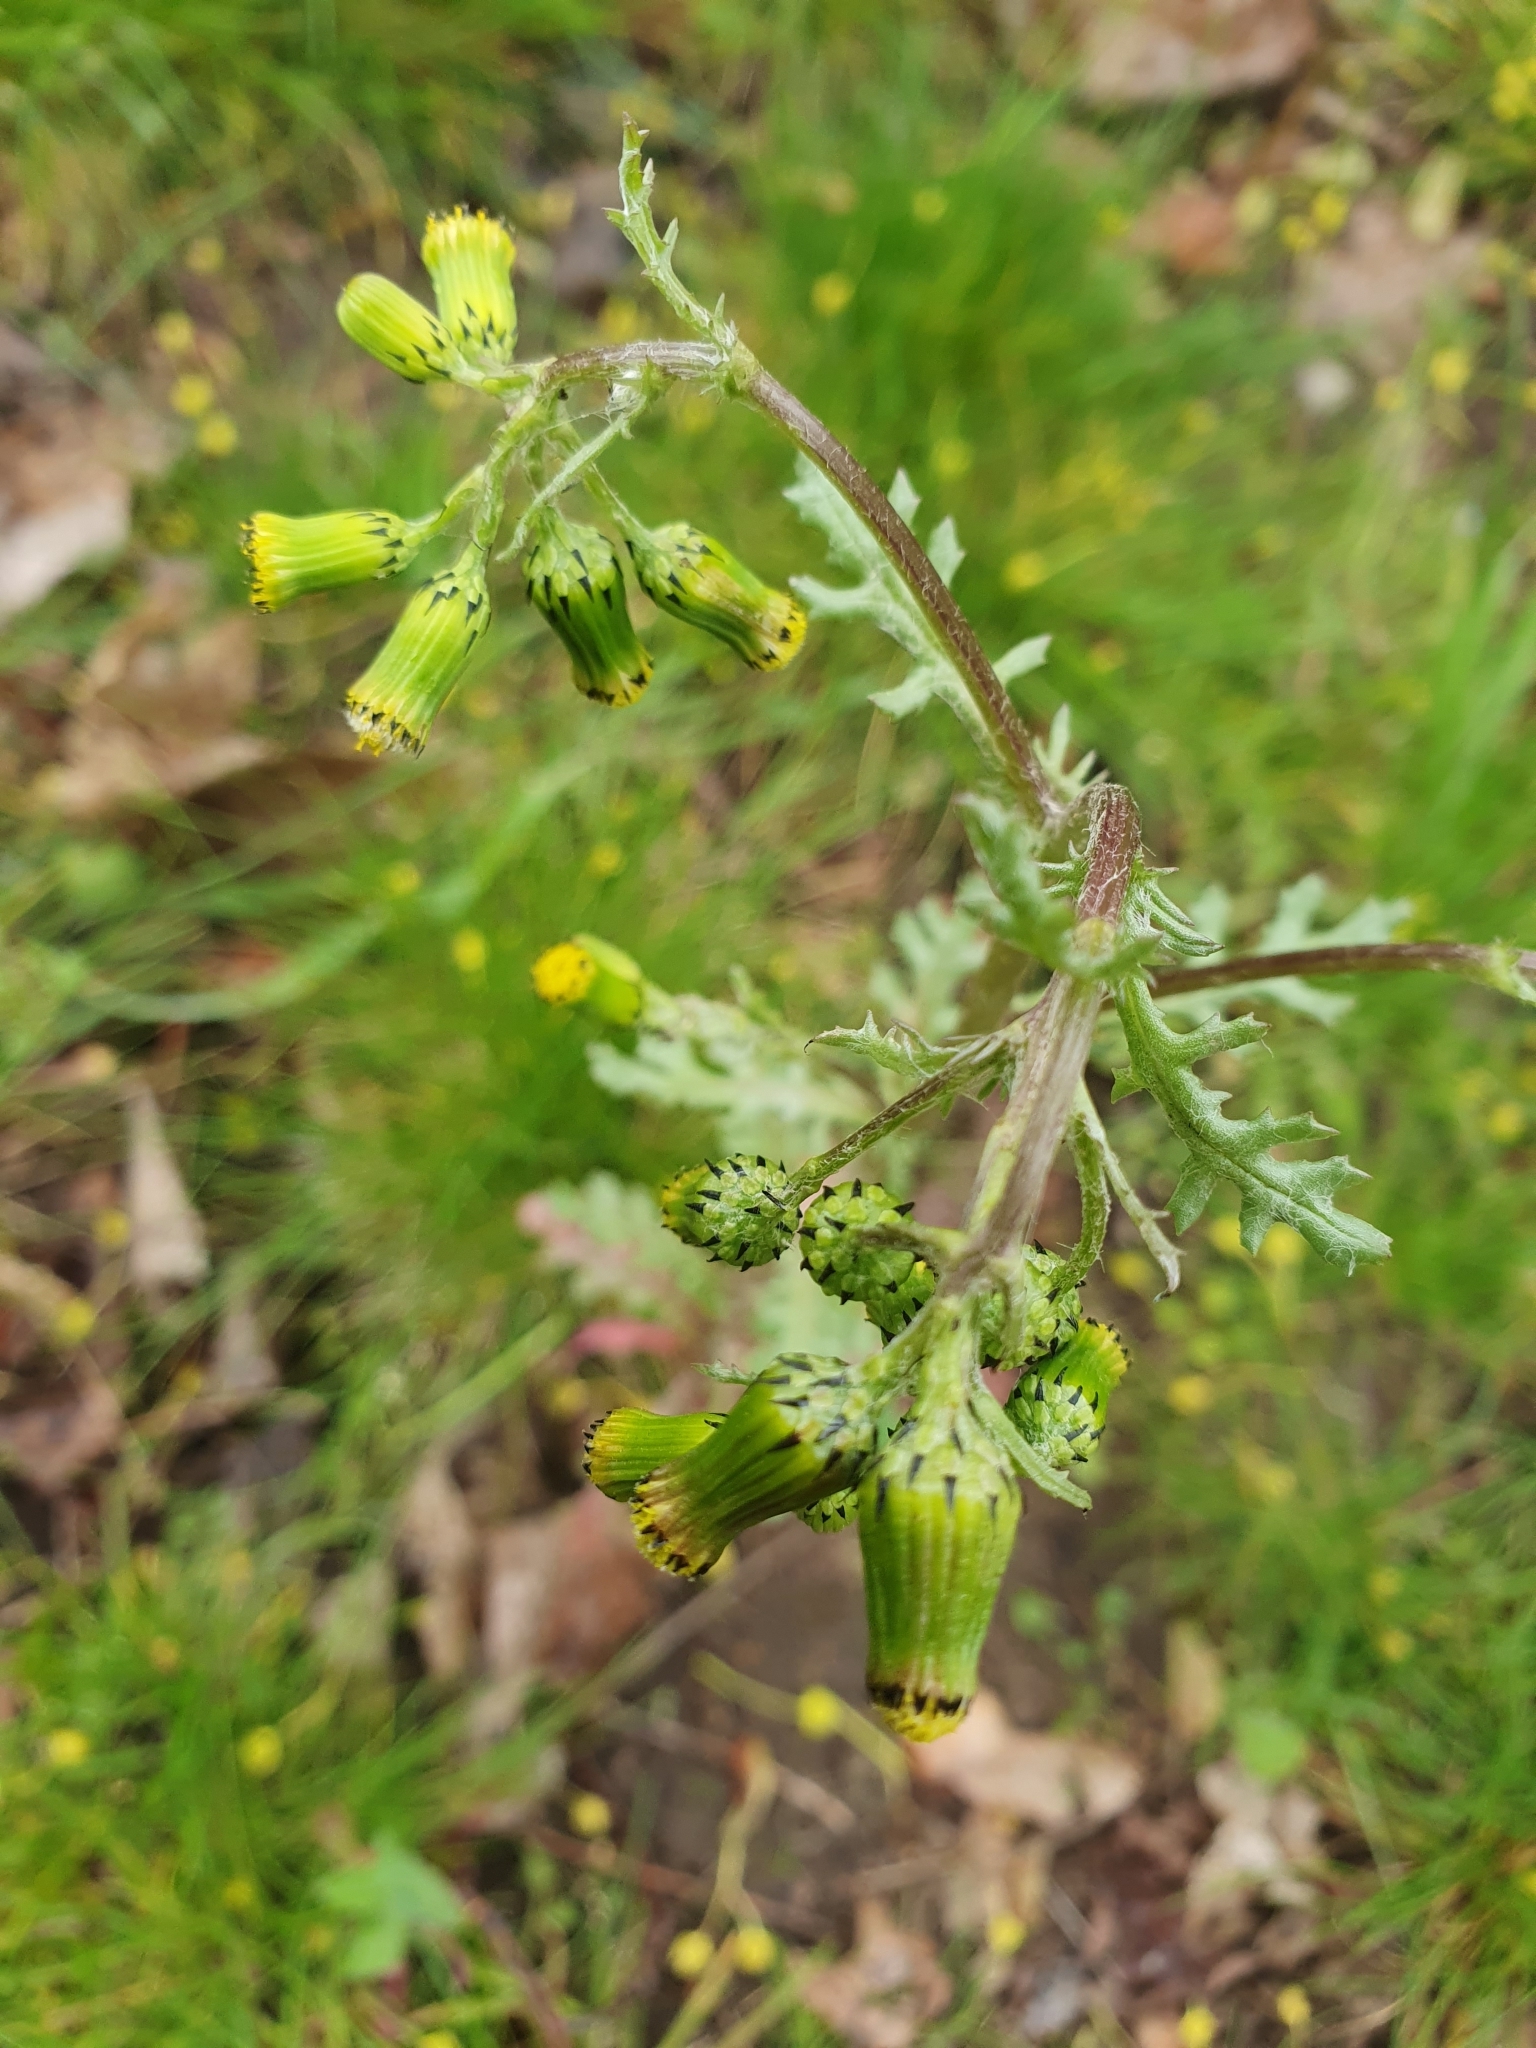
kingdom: Plantae
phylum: Tracheophyta
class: Magnoliopsida
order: Asterales
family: Asteraceae
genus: Senecio
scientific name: Senecio vulgaris
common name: Old-man-in-the-spring
